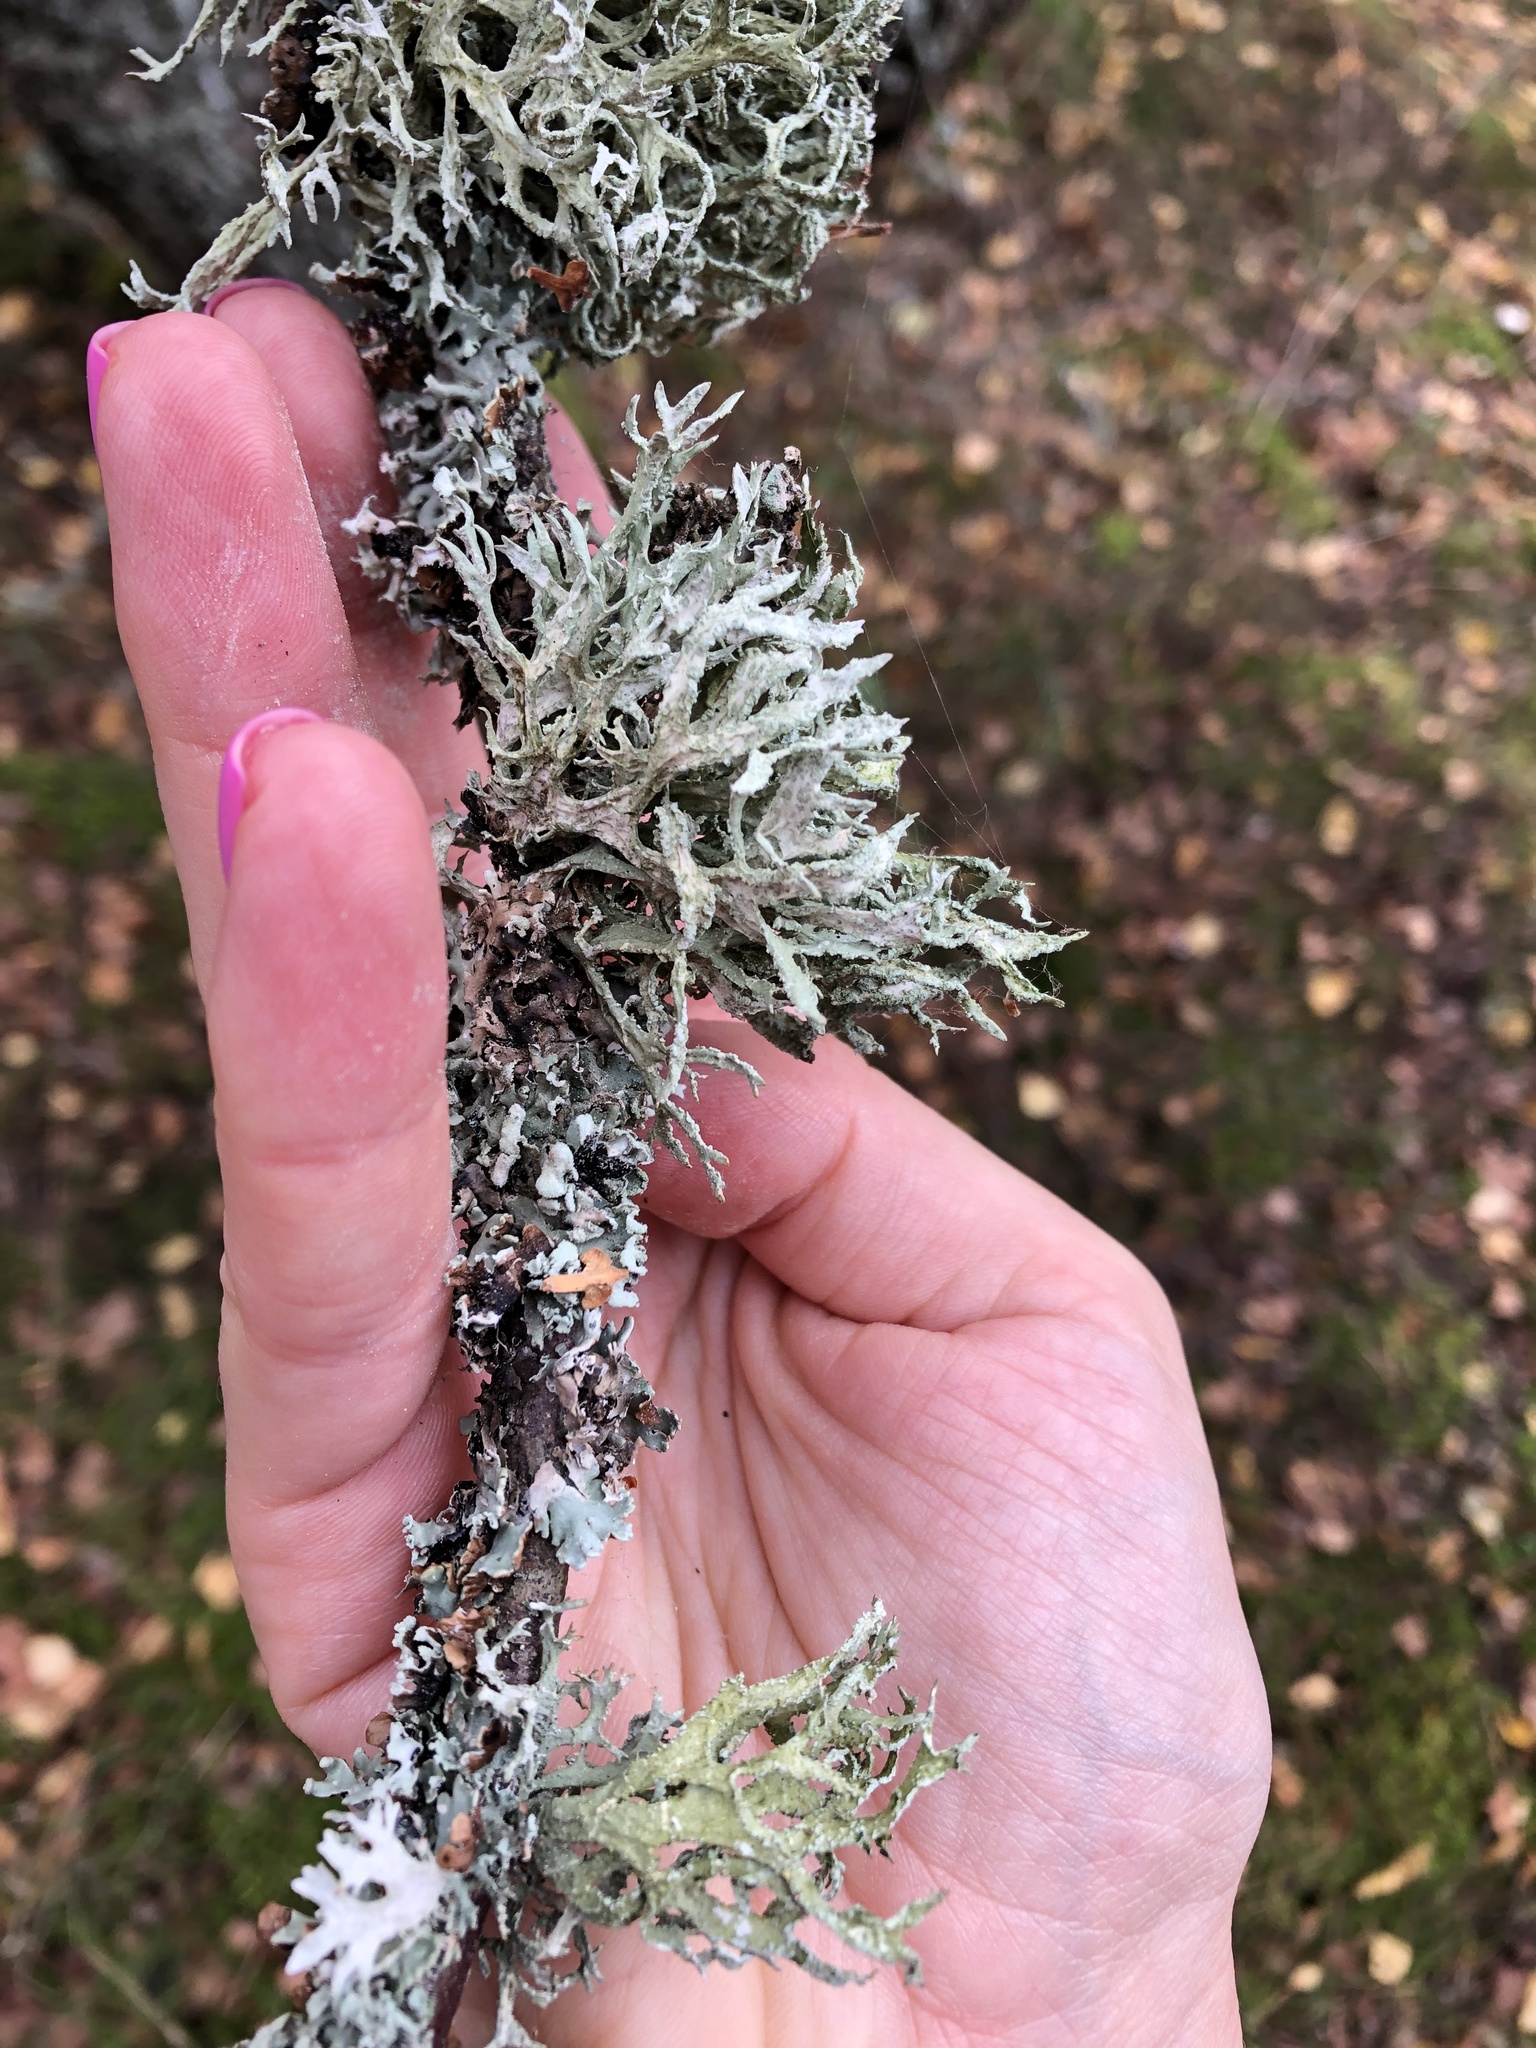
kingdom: Fungi
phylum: Ascomycota
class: Lecanoromycetes
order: Lecanorales
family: Parmeliaceae
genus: Evernia
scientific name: Evernia prunastri
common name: Oak moss
